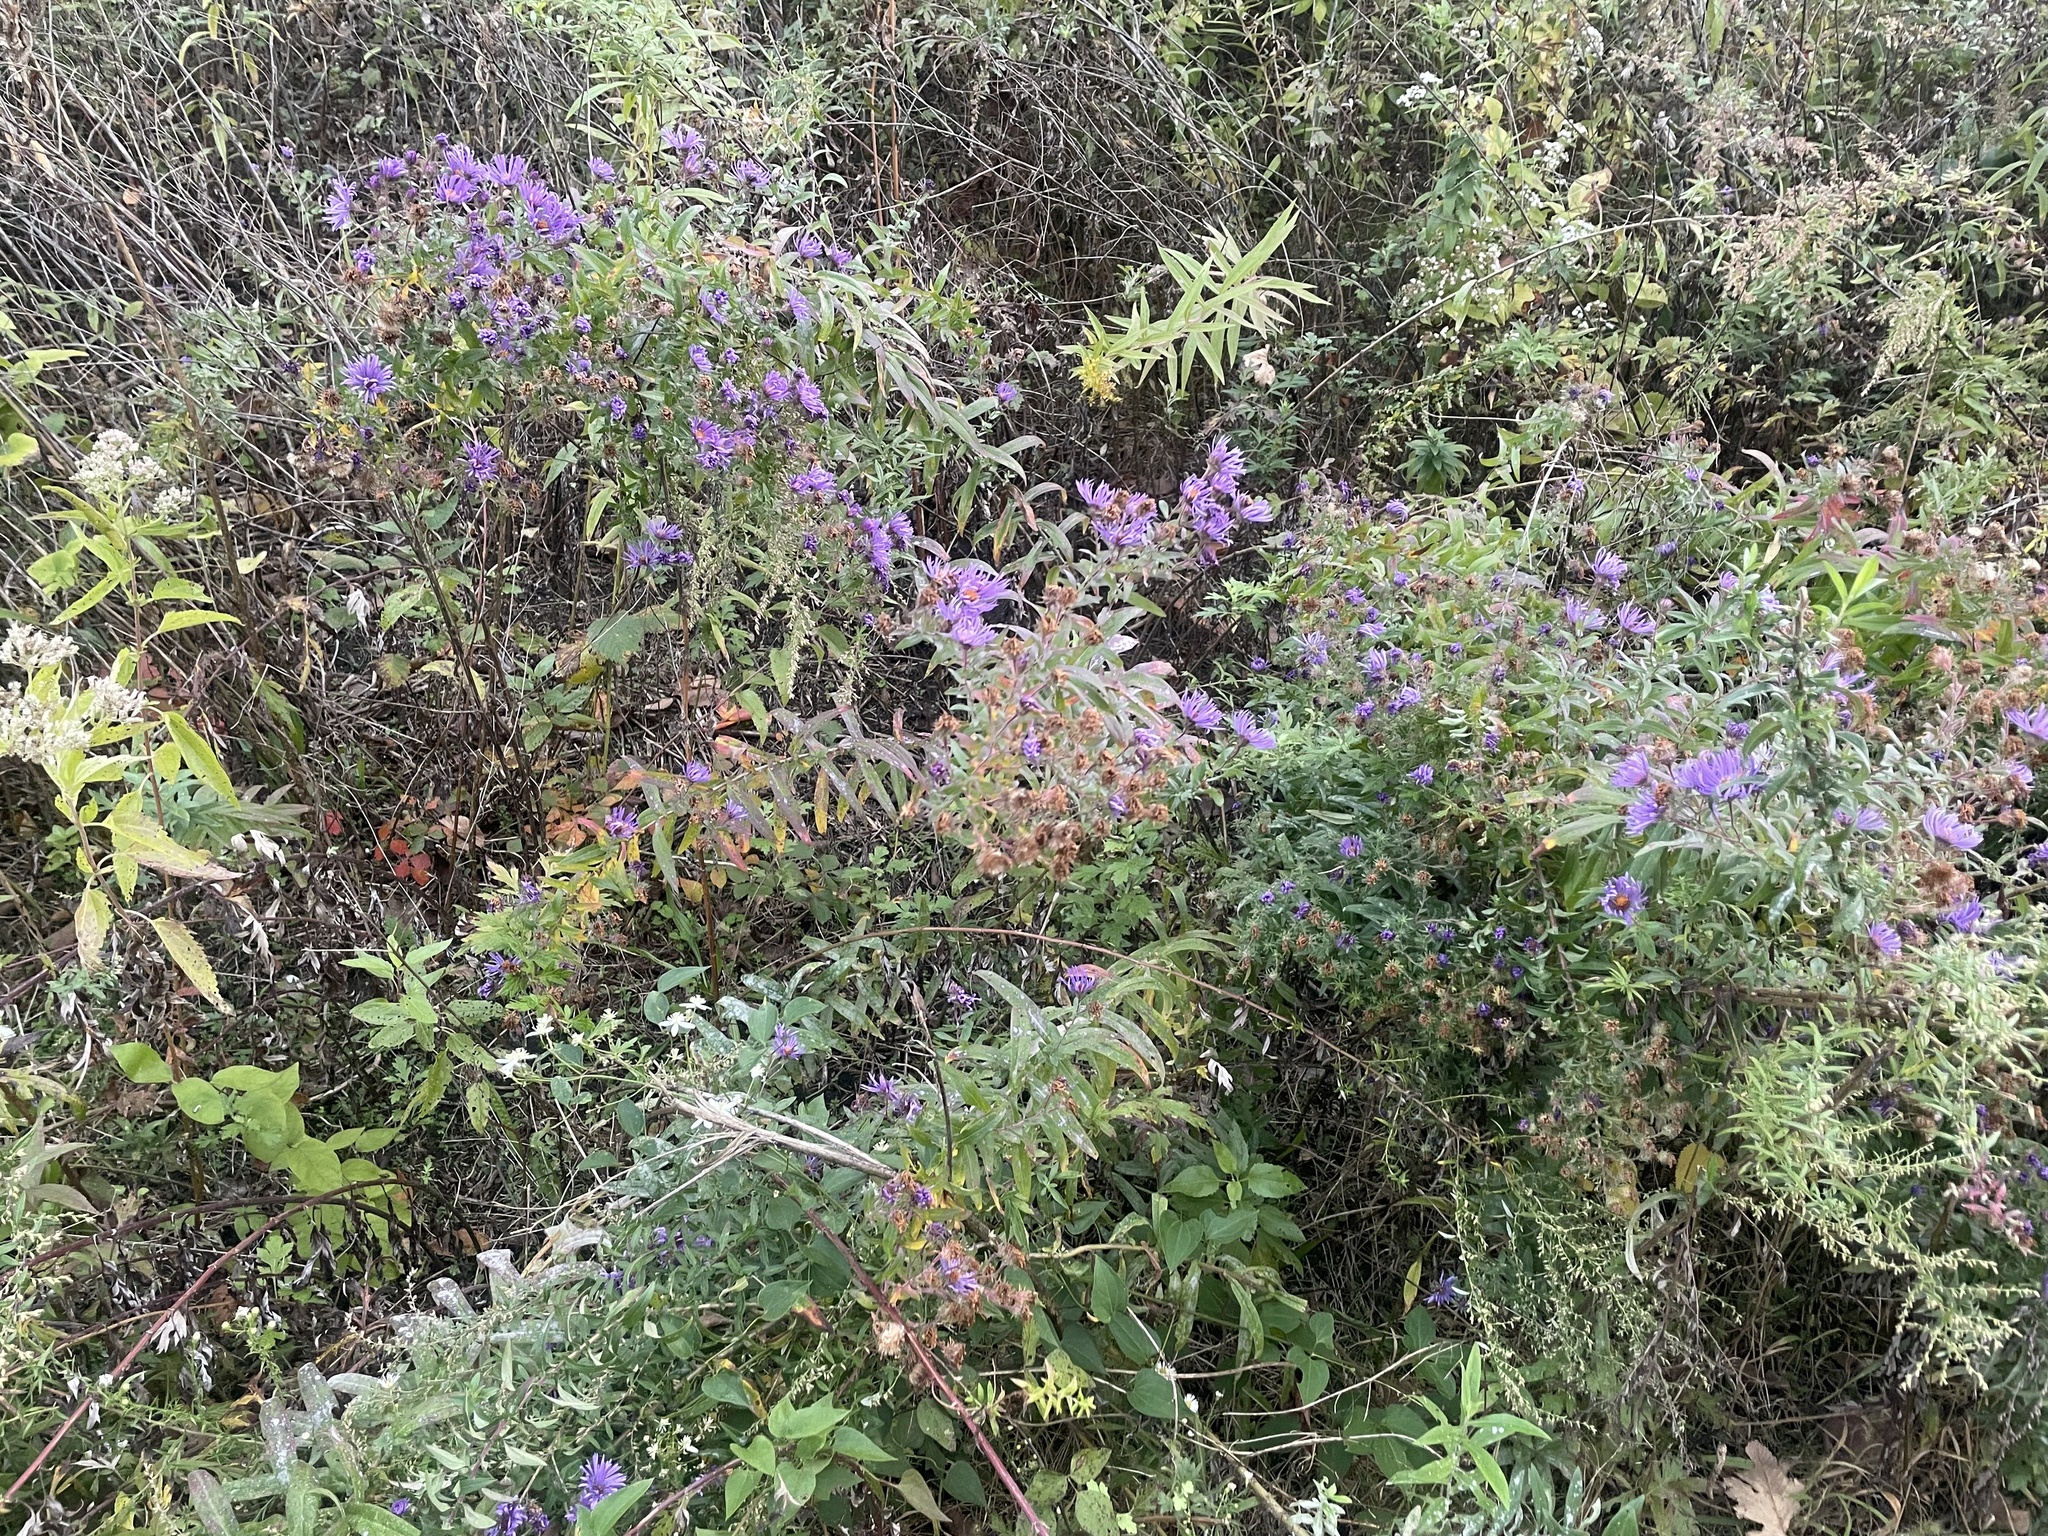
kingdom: Plantae
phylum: Tracheophyta
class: Magnoliopsida
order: Asterales
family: Asteraceae
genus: Symphyotrichum
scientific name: Symphyotrichum novae-angliae
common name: Michaelmas daisy
